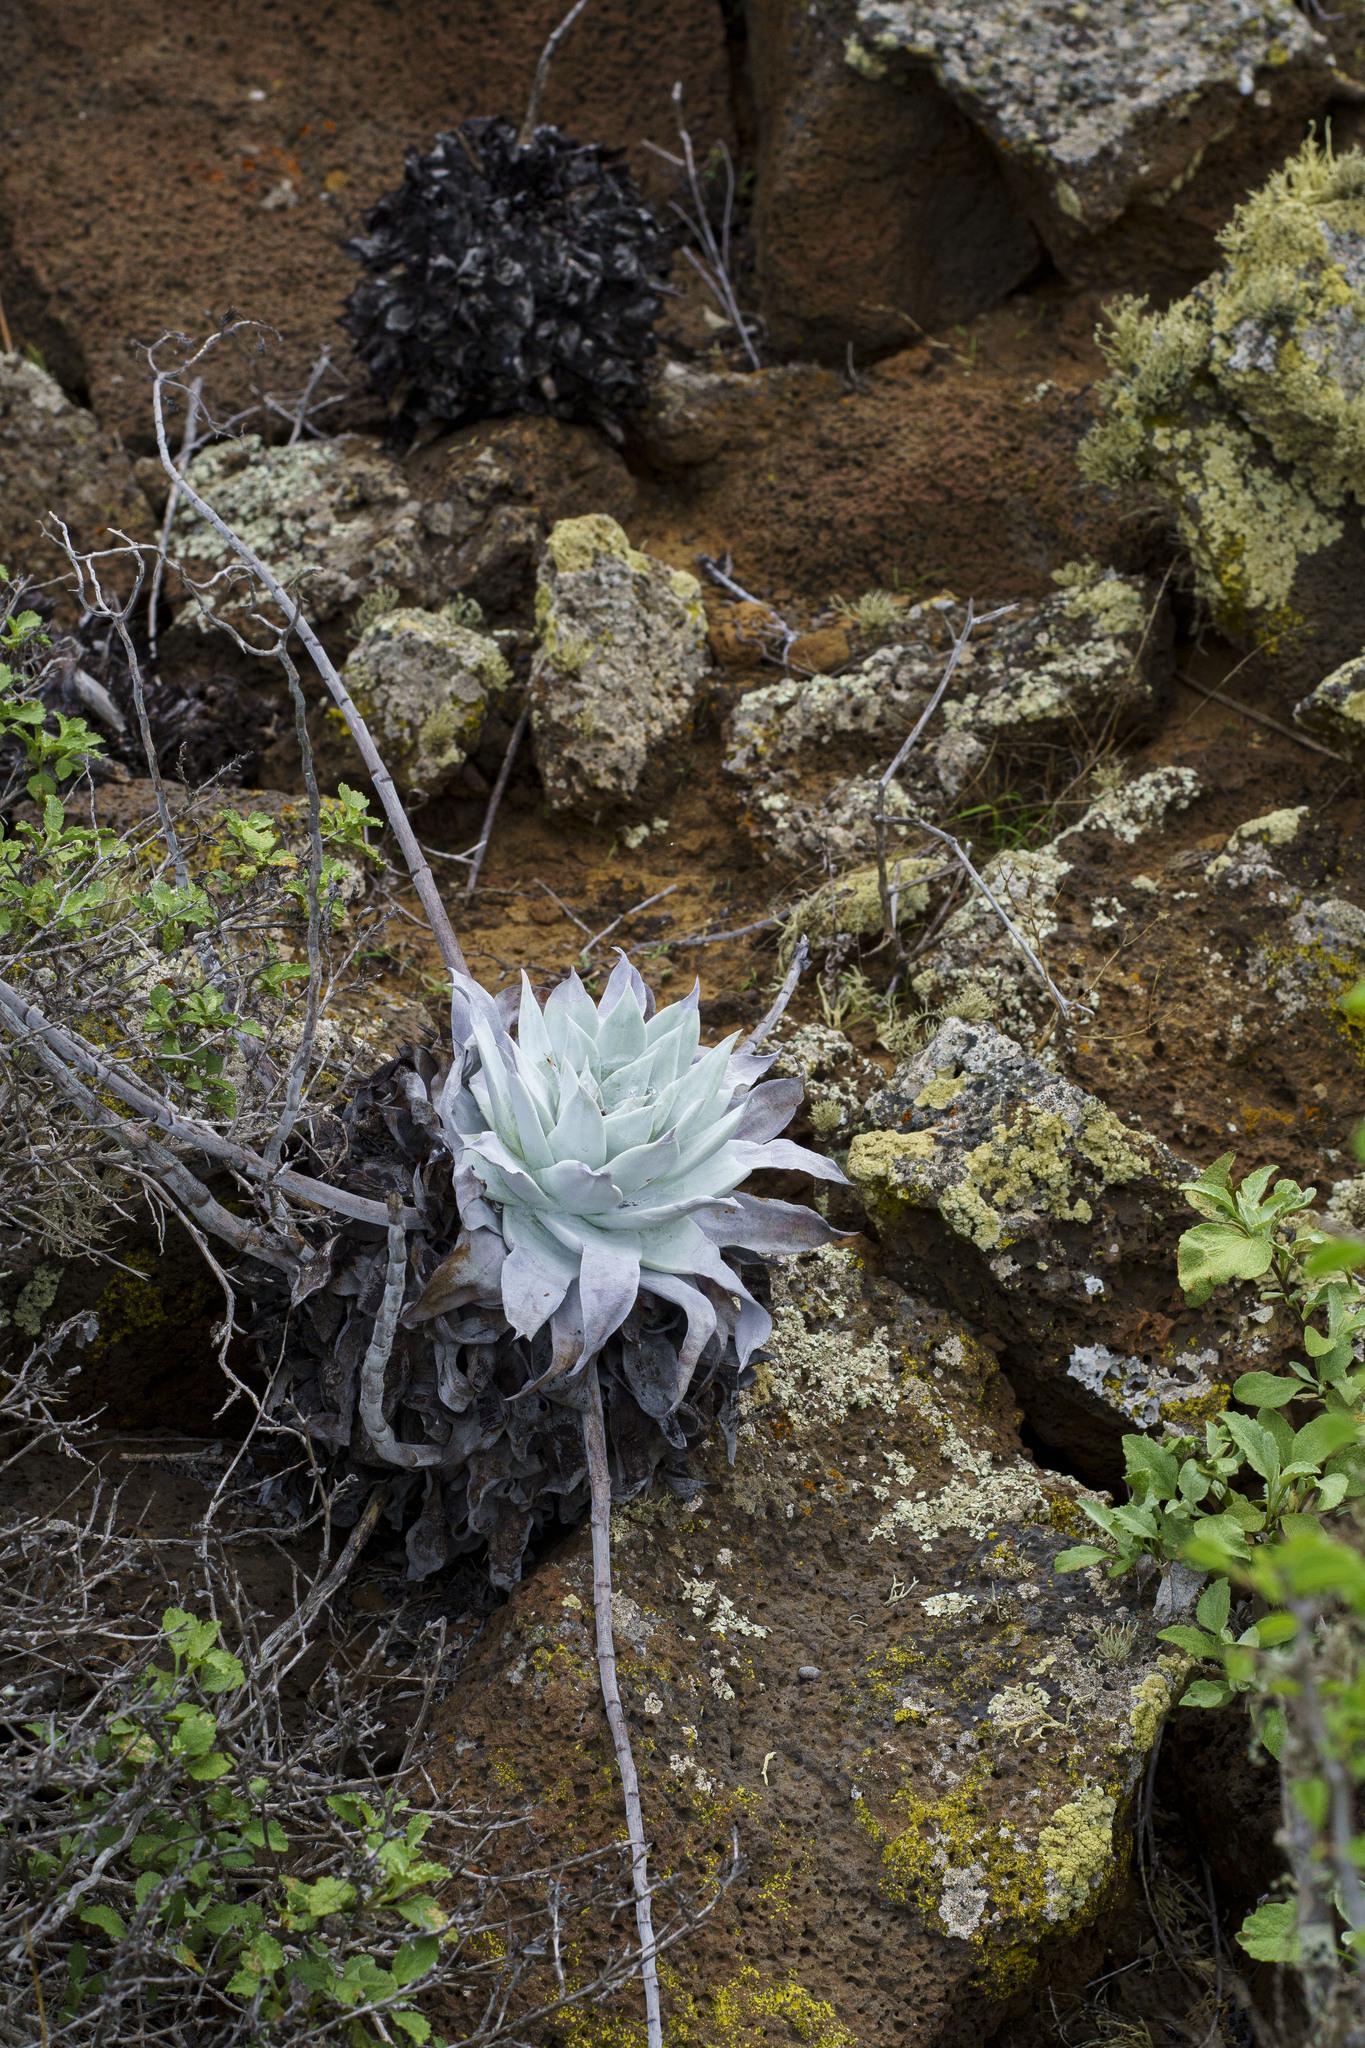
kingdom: Plantae
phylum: Tracheophyta
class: Magnoliopsida
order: Saxifragales
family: Crassulaceae
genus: Dudleya
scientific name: Dudleya anthonyi
